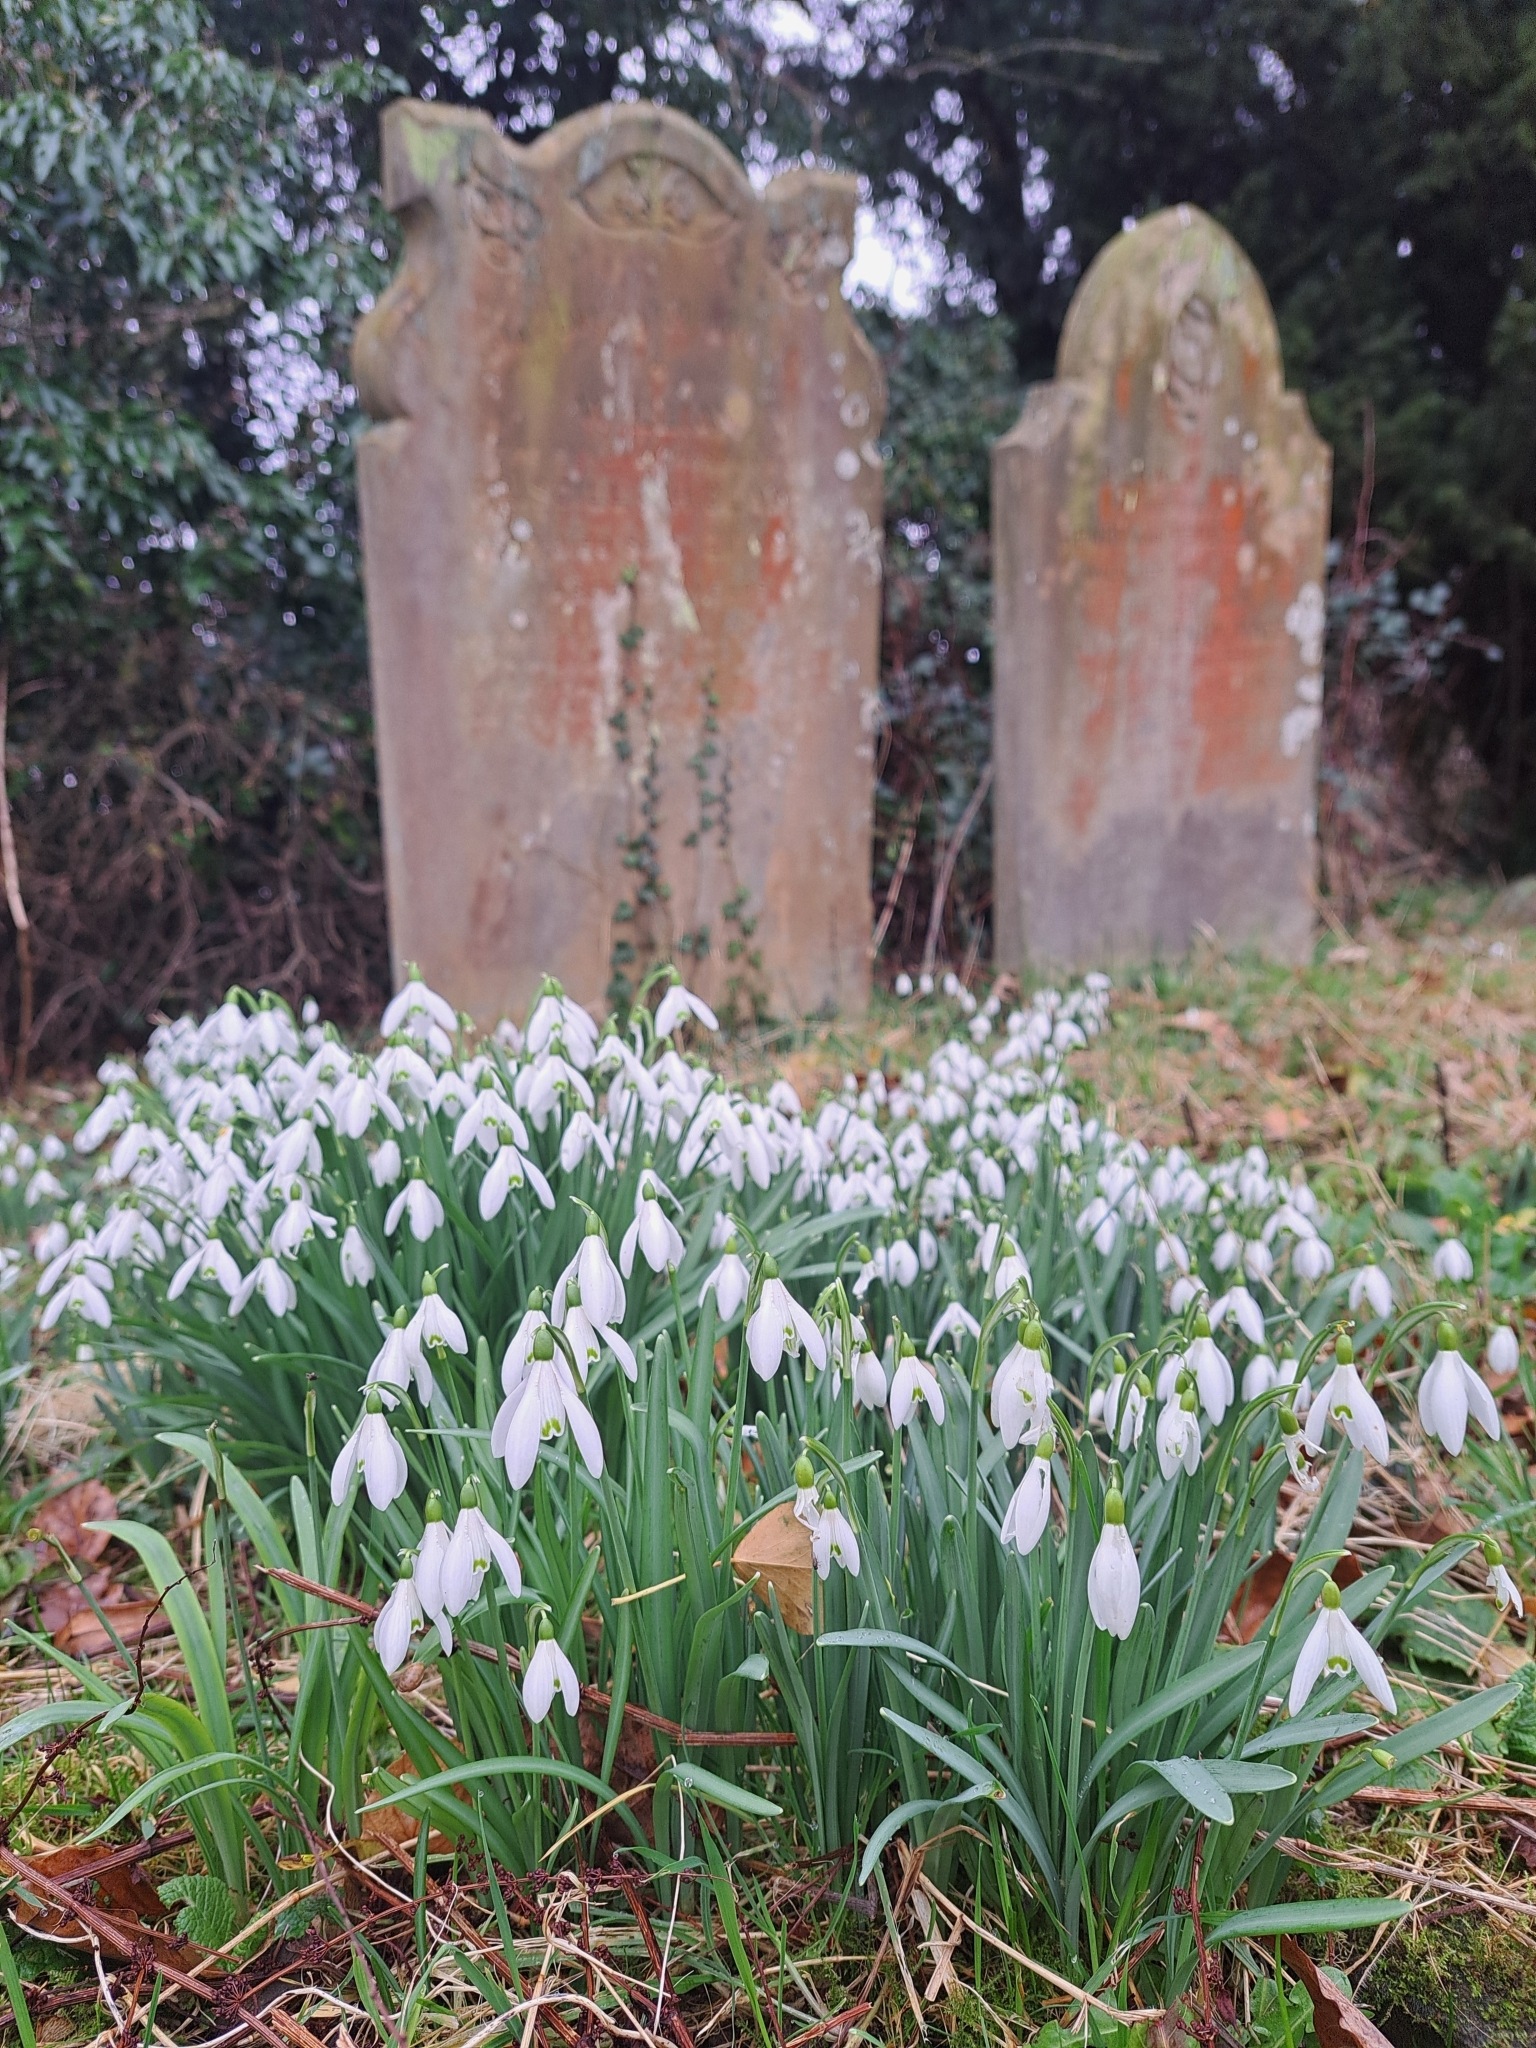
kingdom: Plantae
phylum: Tracheophyta
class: Liliopsida
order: Asparagales
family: Amaryllidaceae
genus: Galanthus
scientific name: Galanthus nivalis
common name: Snowdrop
